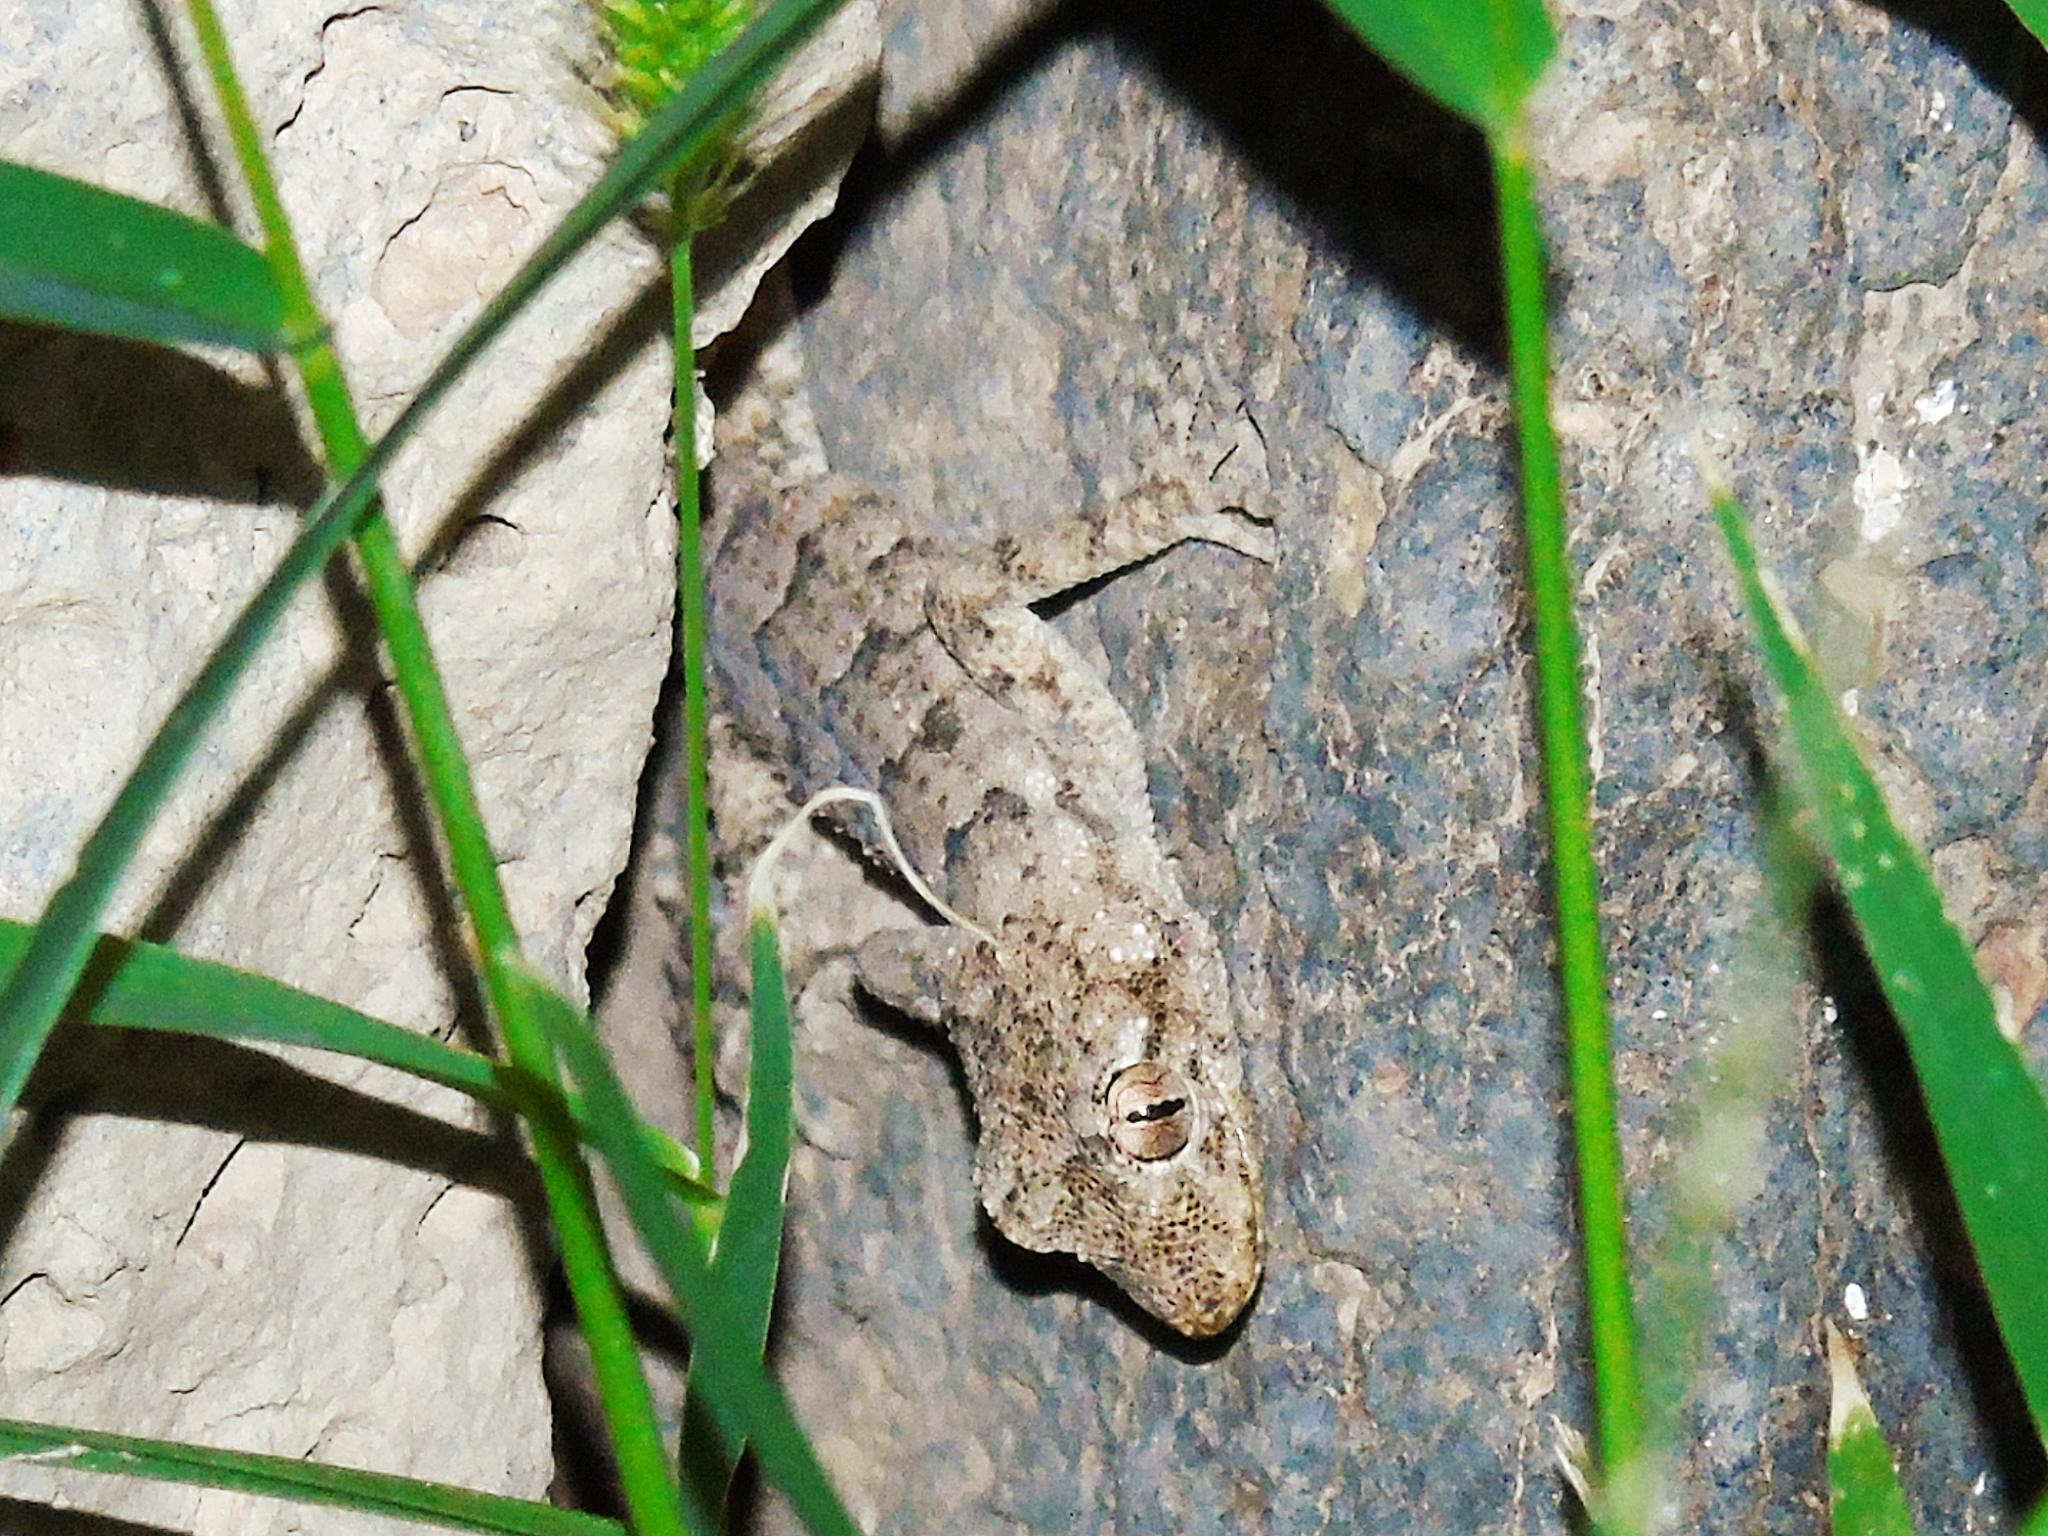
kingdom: Animalia
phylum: Chordata
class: Squamata
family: Gekkonidae
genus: Mediodactylus
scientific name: Mediodactylus heterocercus
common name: Asia minor thin-toed gecko
